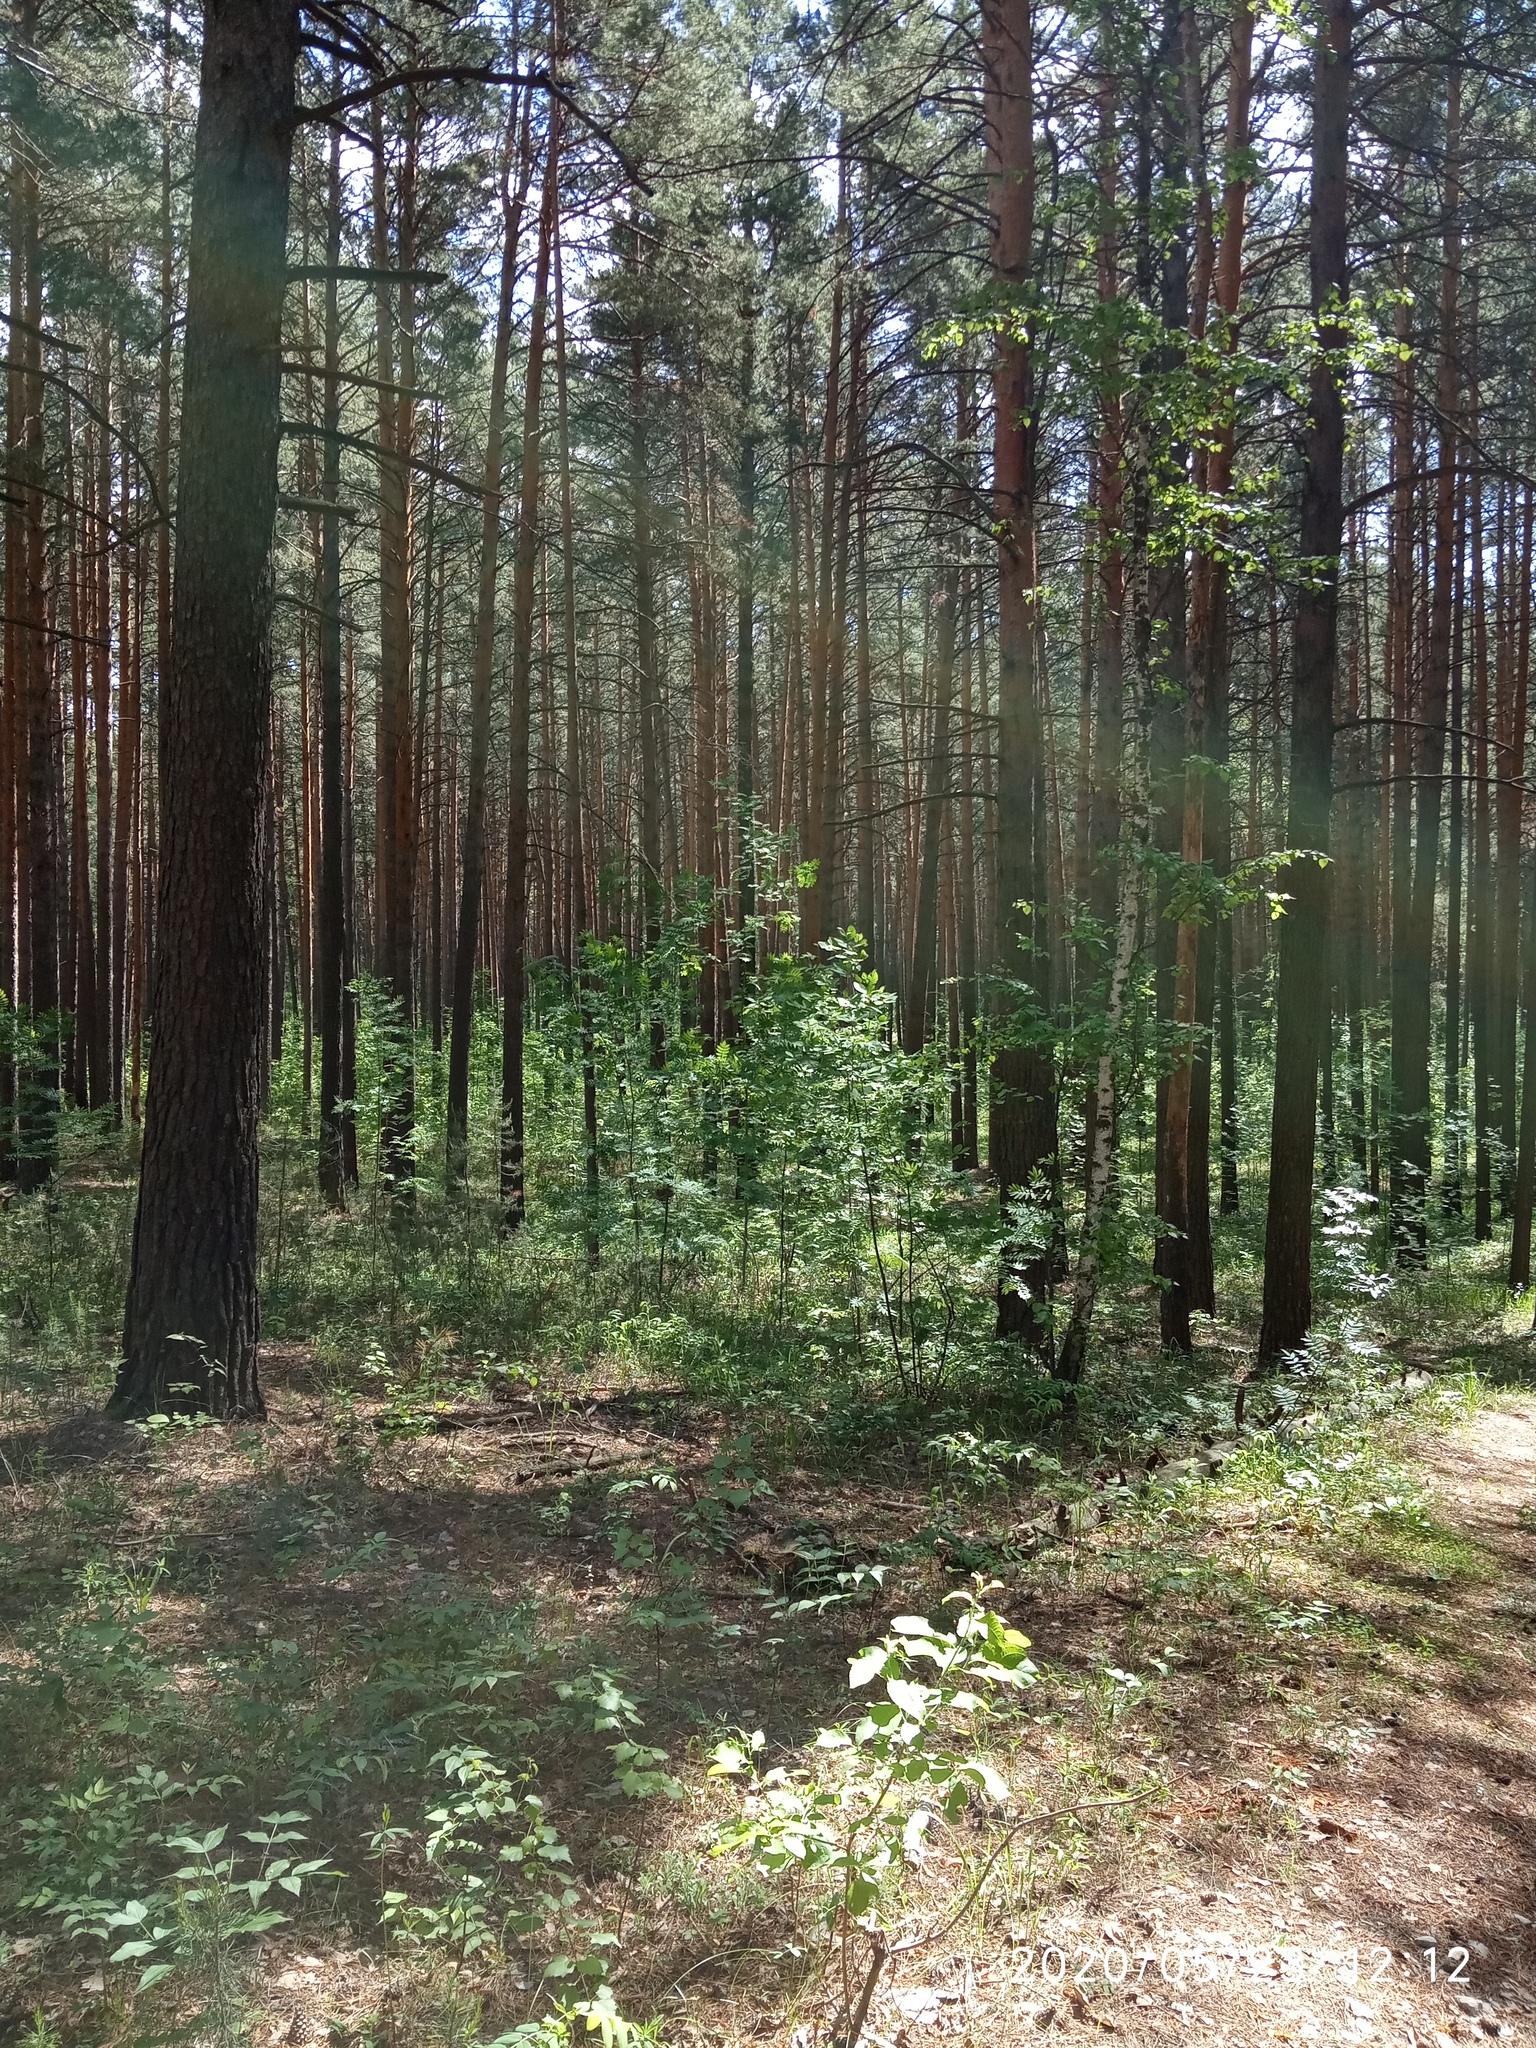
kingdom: Plantae
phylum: Tracheophyta
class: Pinopsida
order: Pinales
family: Pinaceae
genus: Pinus
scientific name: Pinus sylvestris
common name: Scots pine
